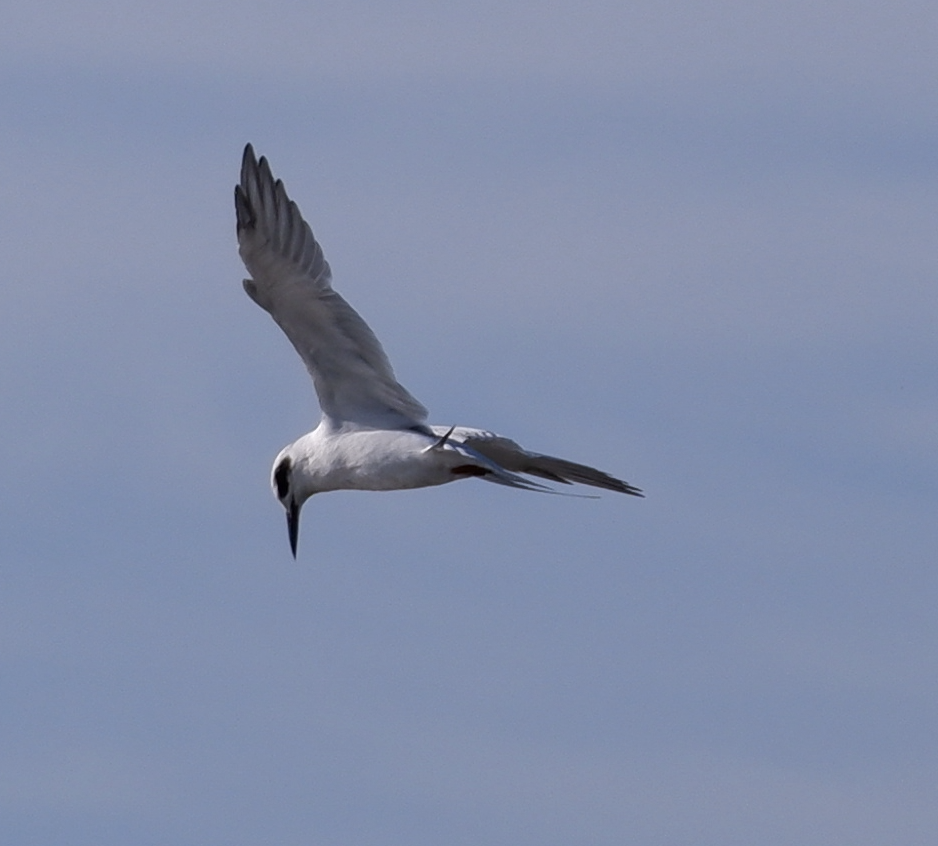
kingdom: Animalia
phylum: Chordata
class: Aves
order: Charadriiformes
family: Laridae
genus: Sterna
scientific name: Sterna forsteri
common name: Forster's tern
